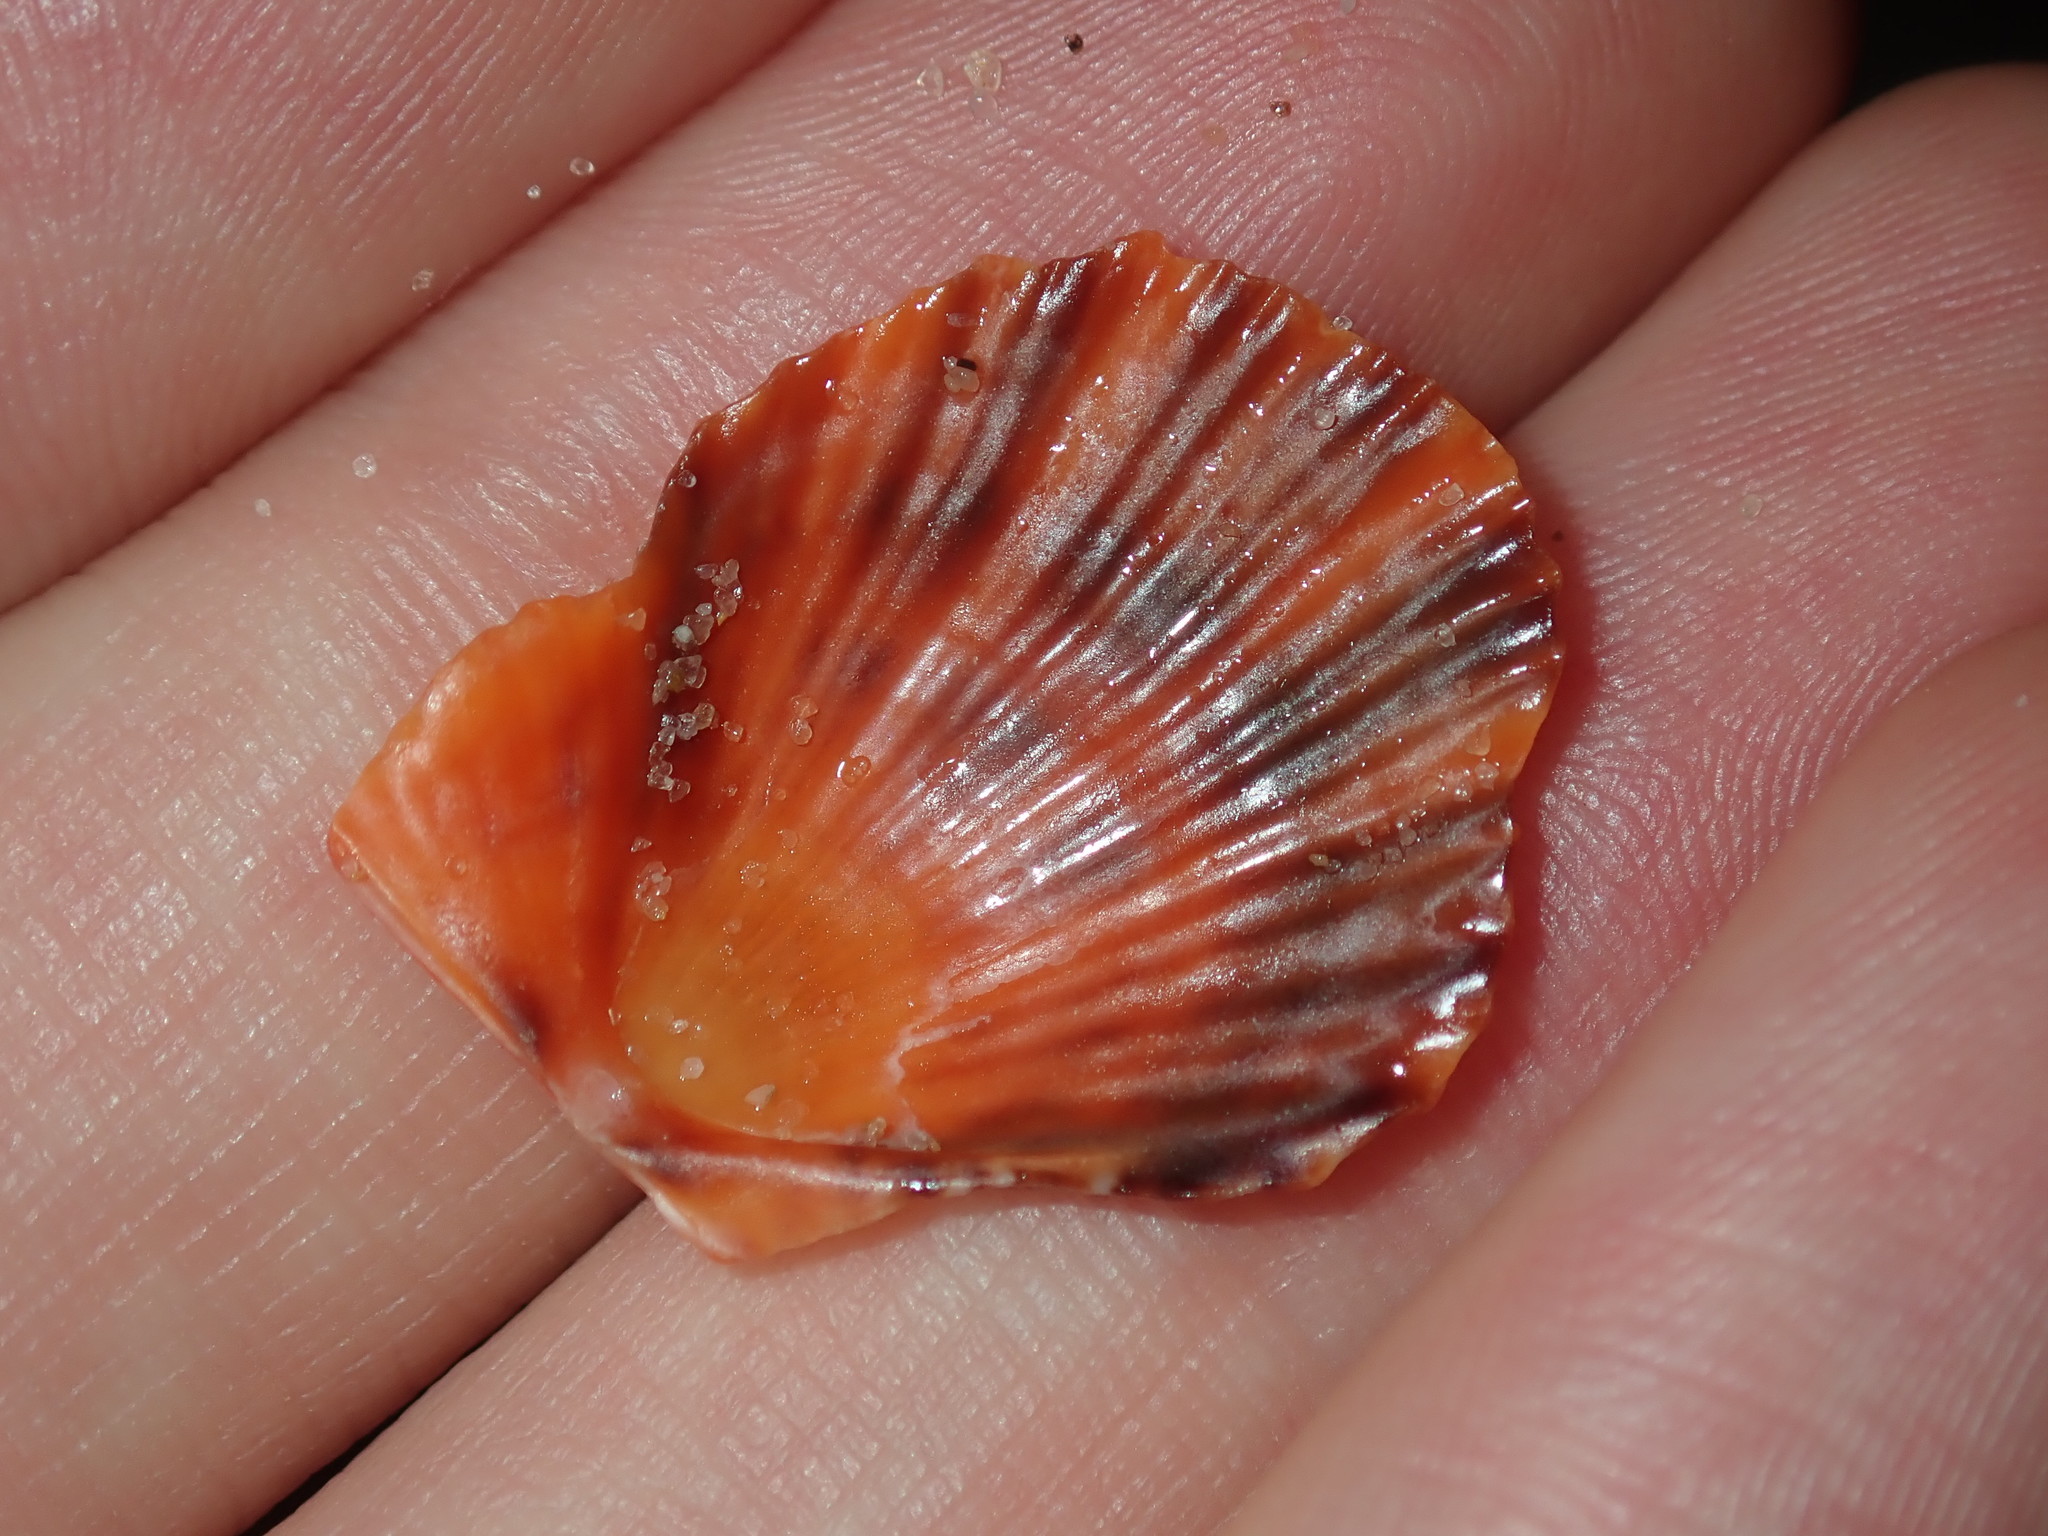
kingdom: Animalia
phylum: Mollusca
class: Bivalvia
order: Pectinida
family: Pectinidae
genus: Scaeochlamys
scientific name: Scaeochlamys livida
